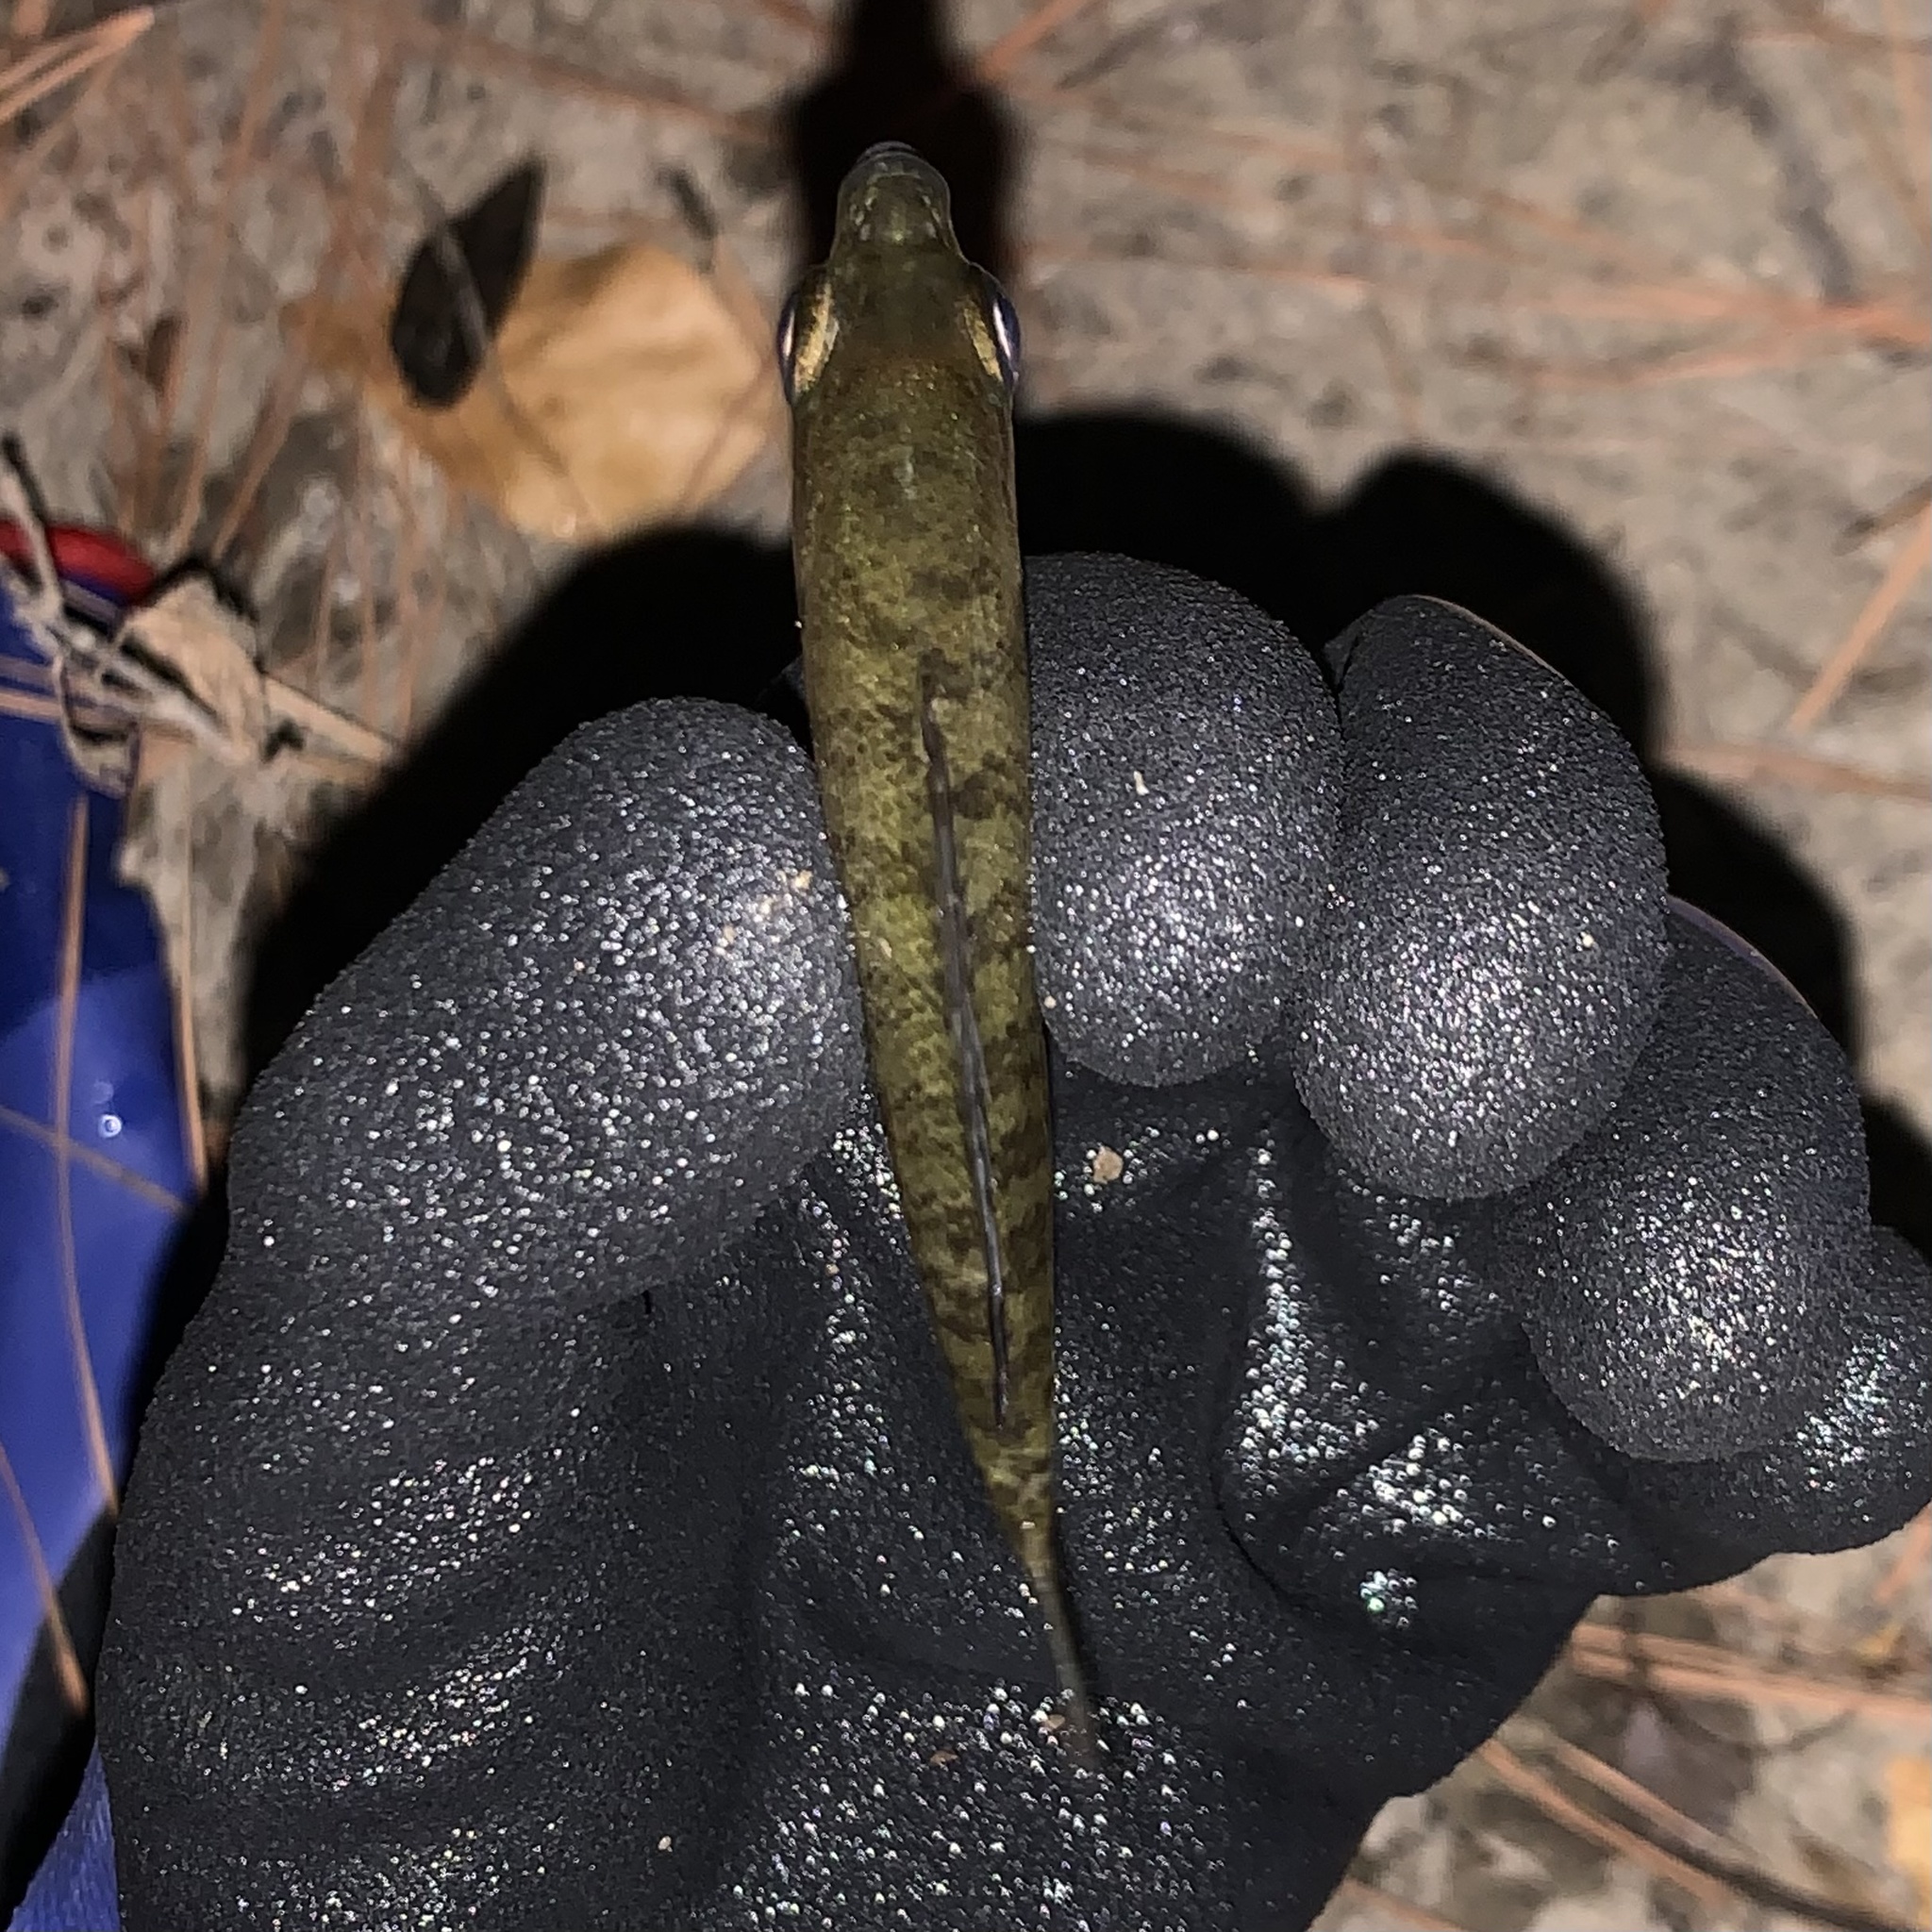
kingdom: Animalia
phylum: Chordata
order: Perciformes
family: Centrarchidae
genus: Lepomis
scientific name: Lepomis macrochirus
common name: Bluegill
